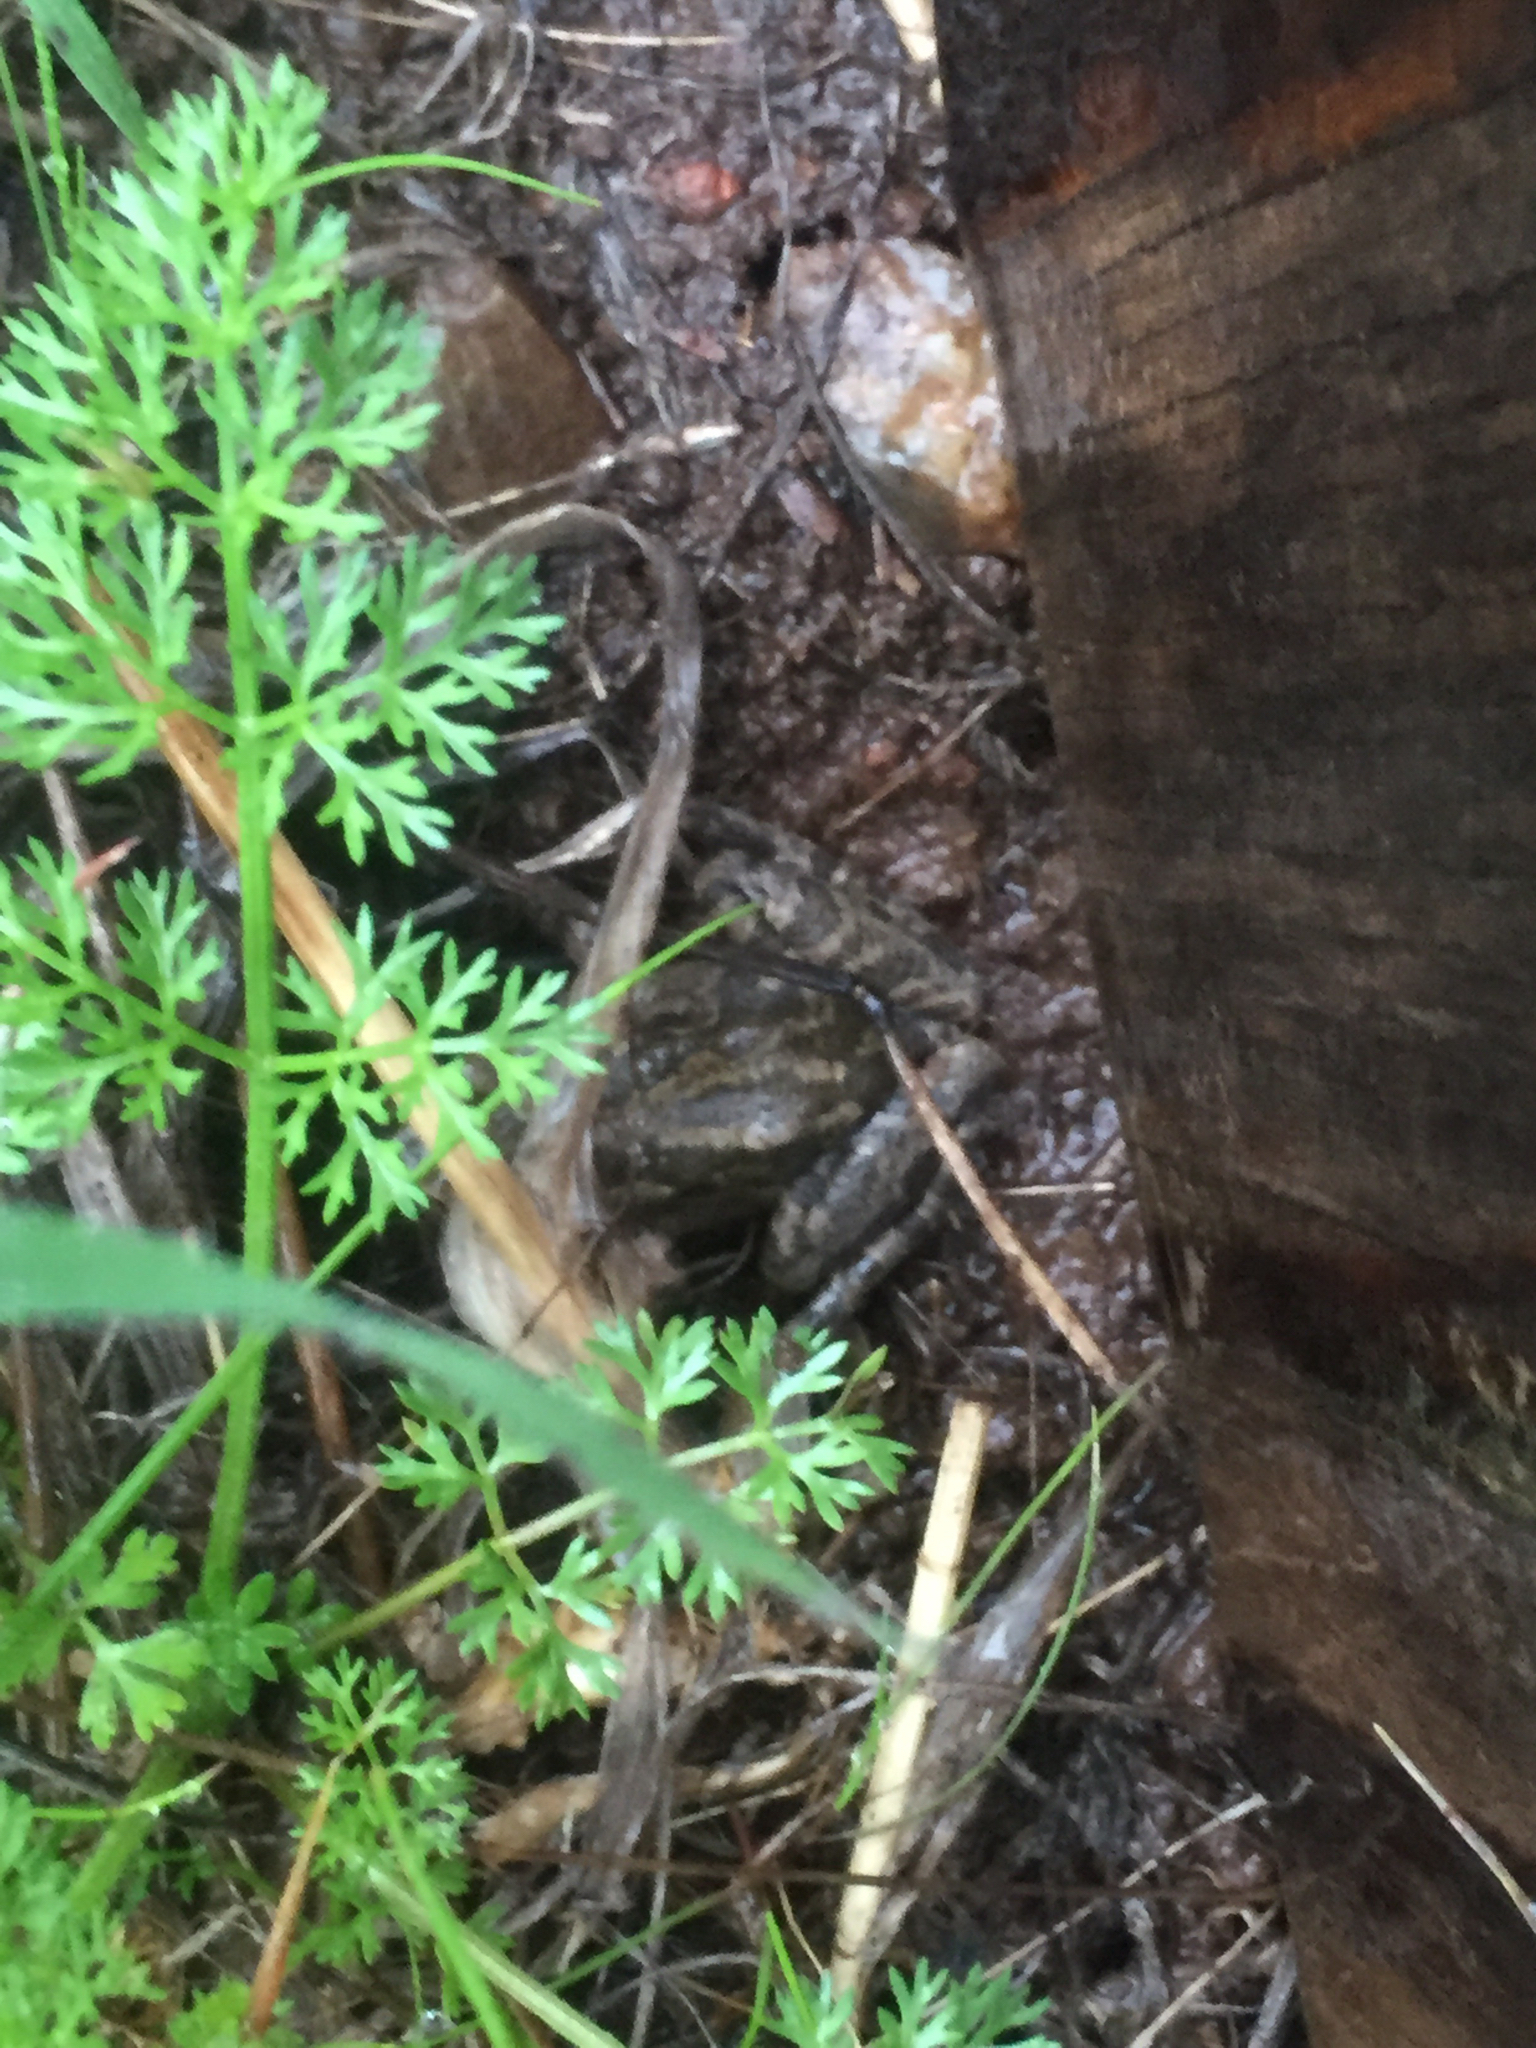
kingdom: Animalia
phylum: Chordata
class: Amphibia
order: Anura
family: Hylidae
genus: Pseudacris
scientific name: Pseudacris regilla
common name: Pacific chorus frog
